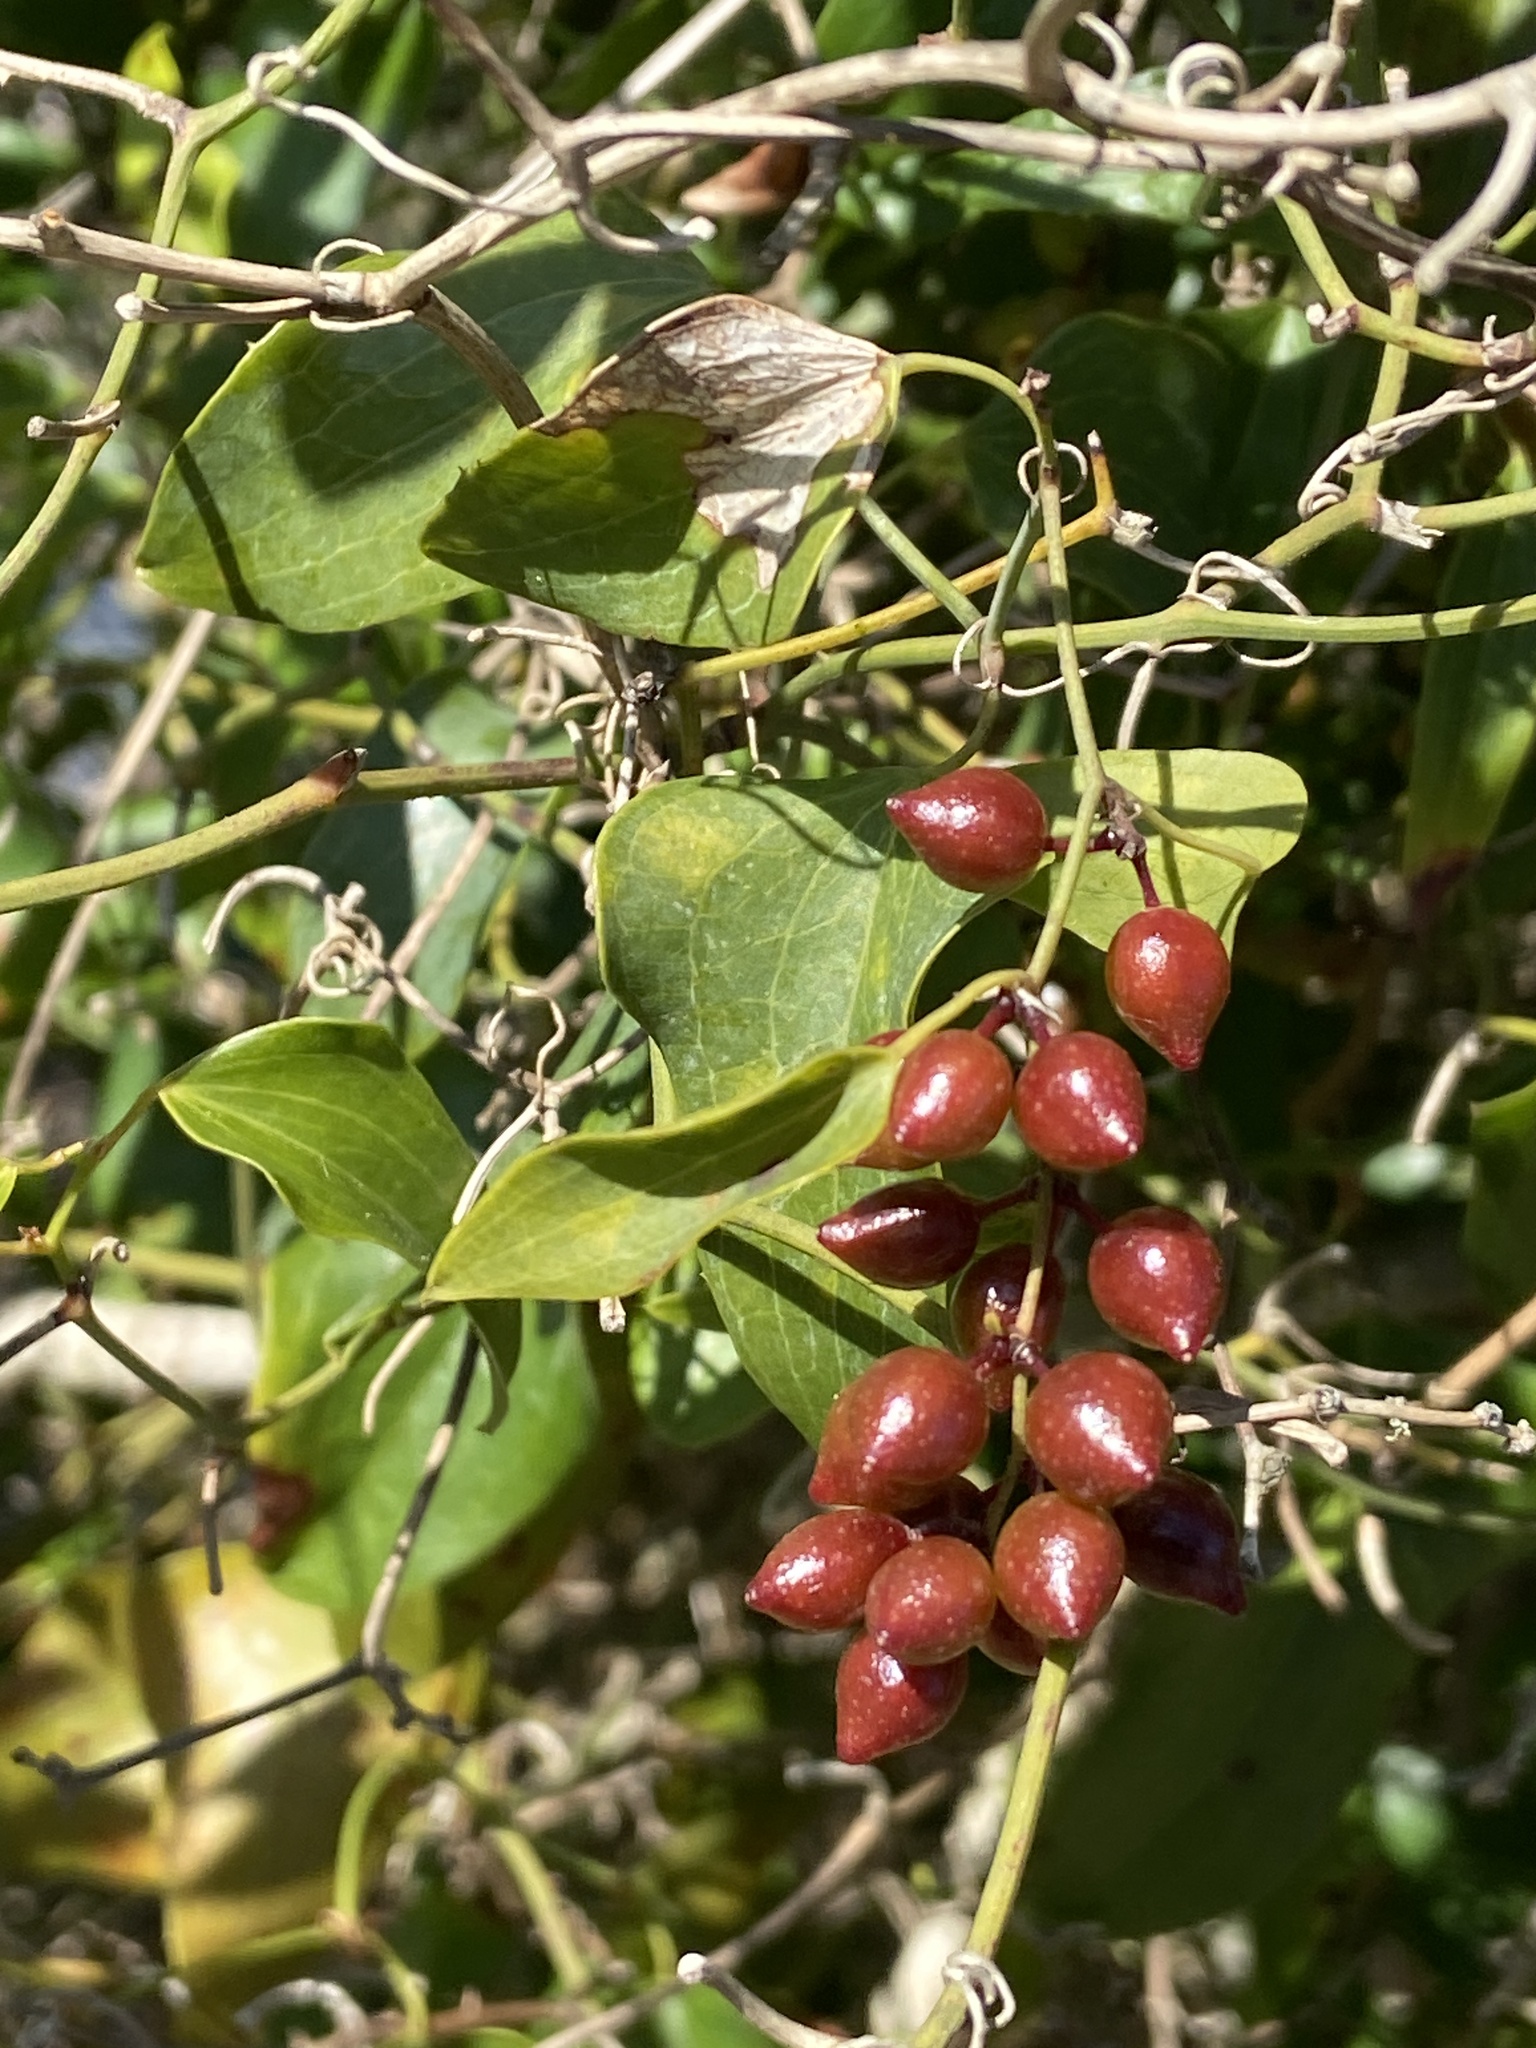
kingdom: Plantae
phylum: Tracheophyta
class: Liliopsida
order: Liliales
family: Smilacaceae
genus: Smilax
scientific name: Smilax aspera
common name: Common smilax
